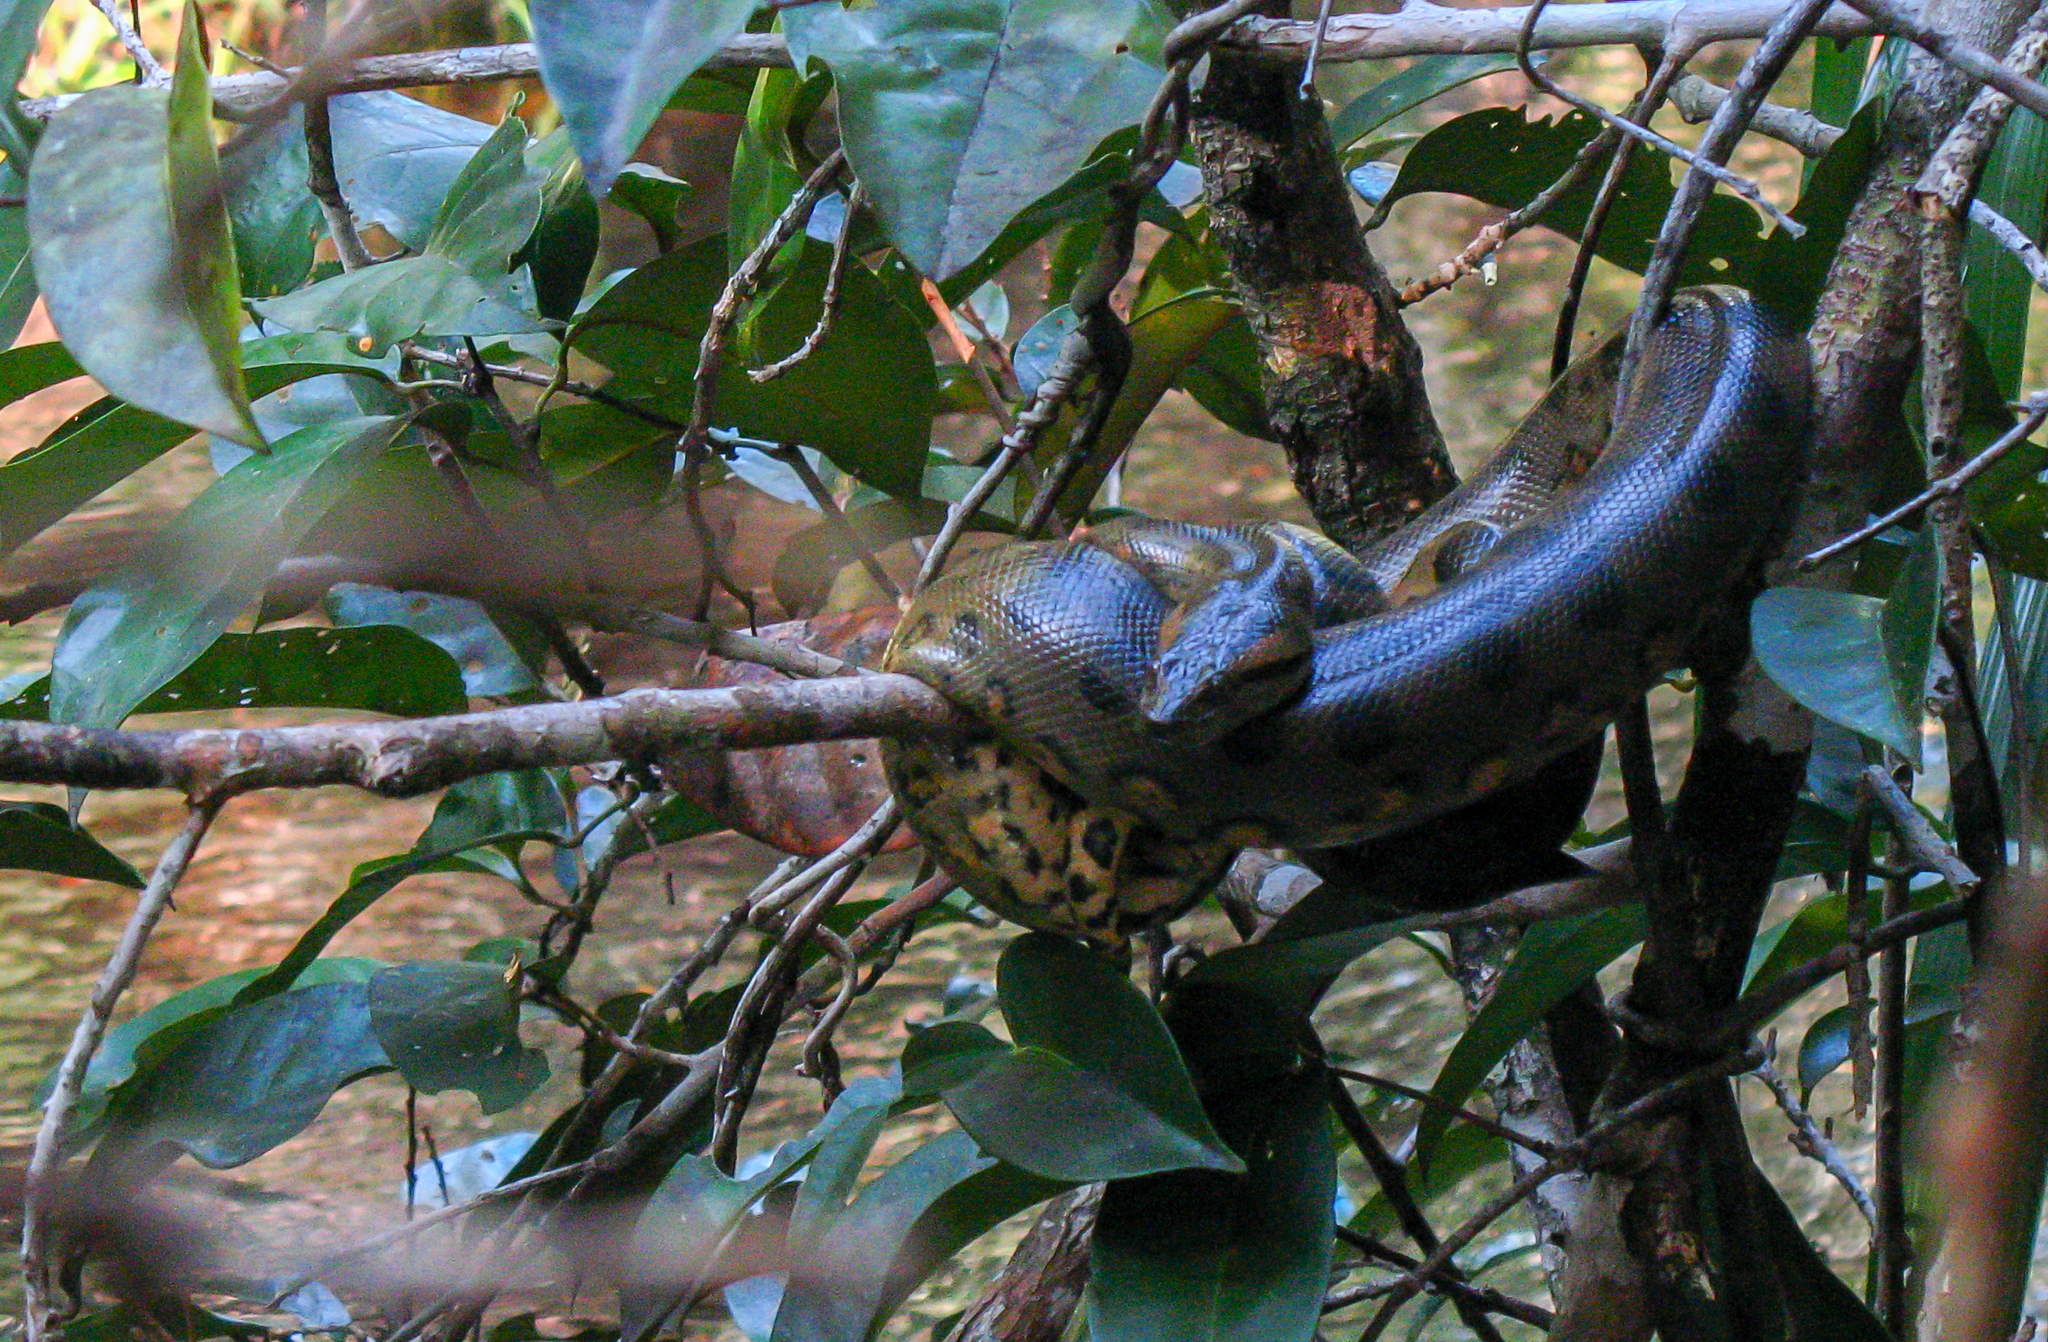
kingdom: Animalia
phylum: Chordata
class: Squamata
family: Boidae
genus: Eunectes
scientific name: Eunectes murinus
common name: Anaconda
